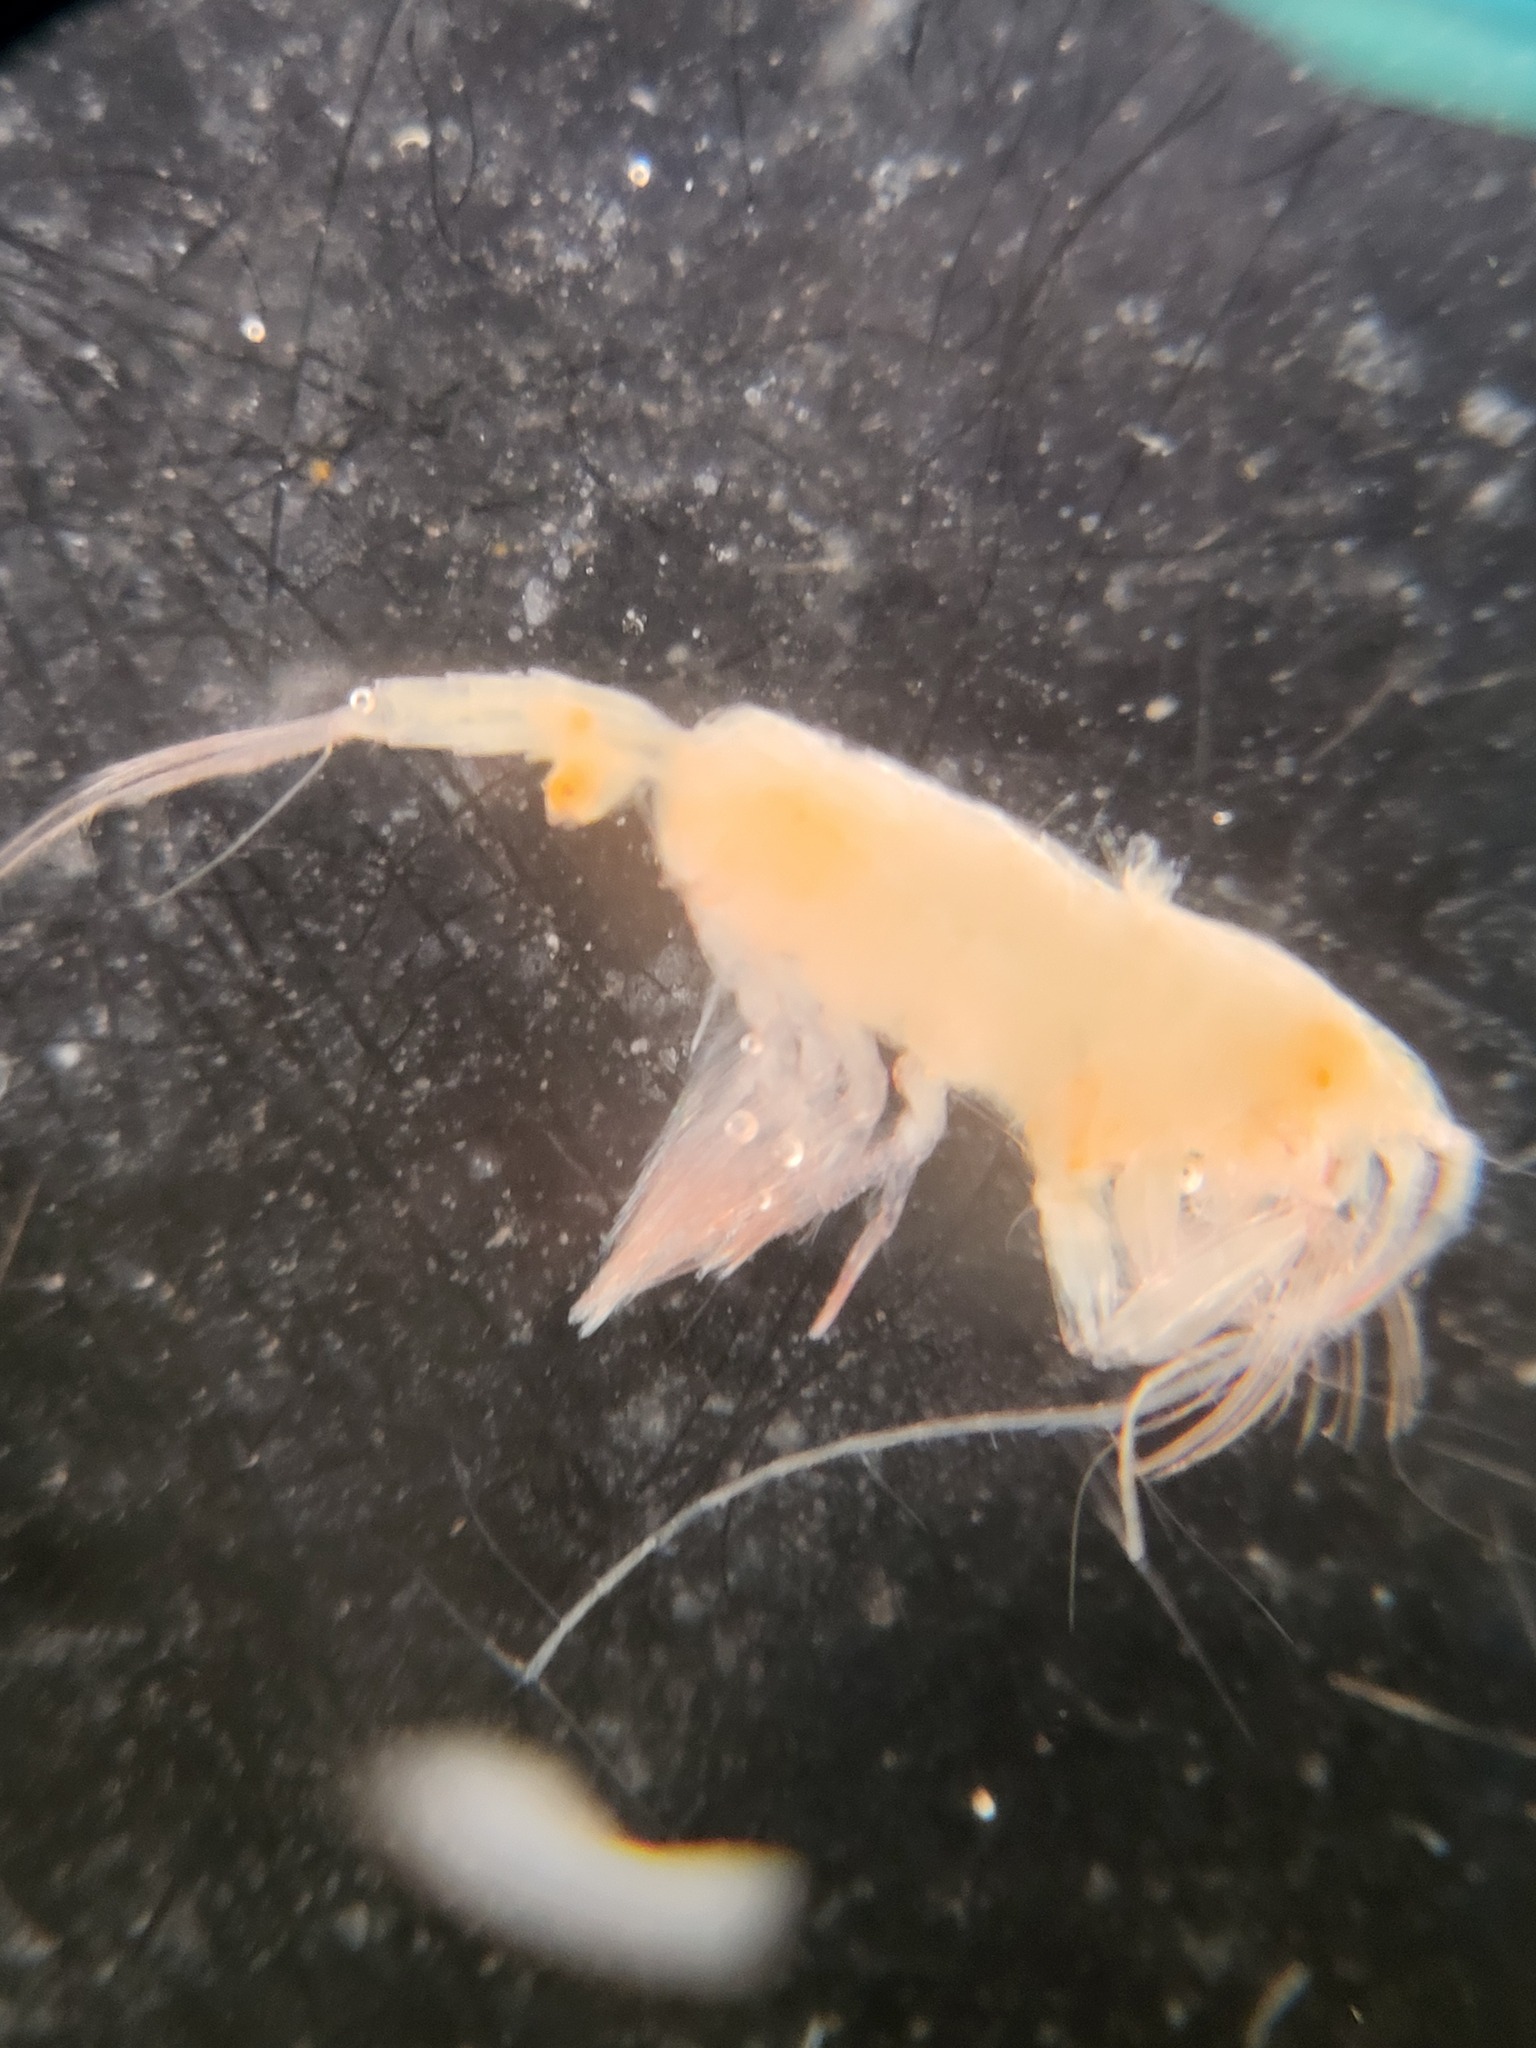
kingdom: Animalia
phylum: Arthropoda
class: Copepoda
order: Calanoida
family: Euchaetidae
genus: Paraeuchaeta
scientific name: Paraeuchaeta glacialis
